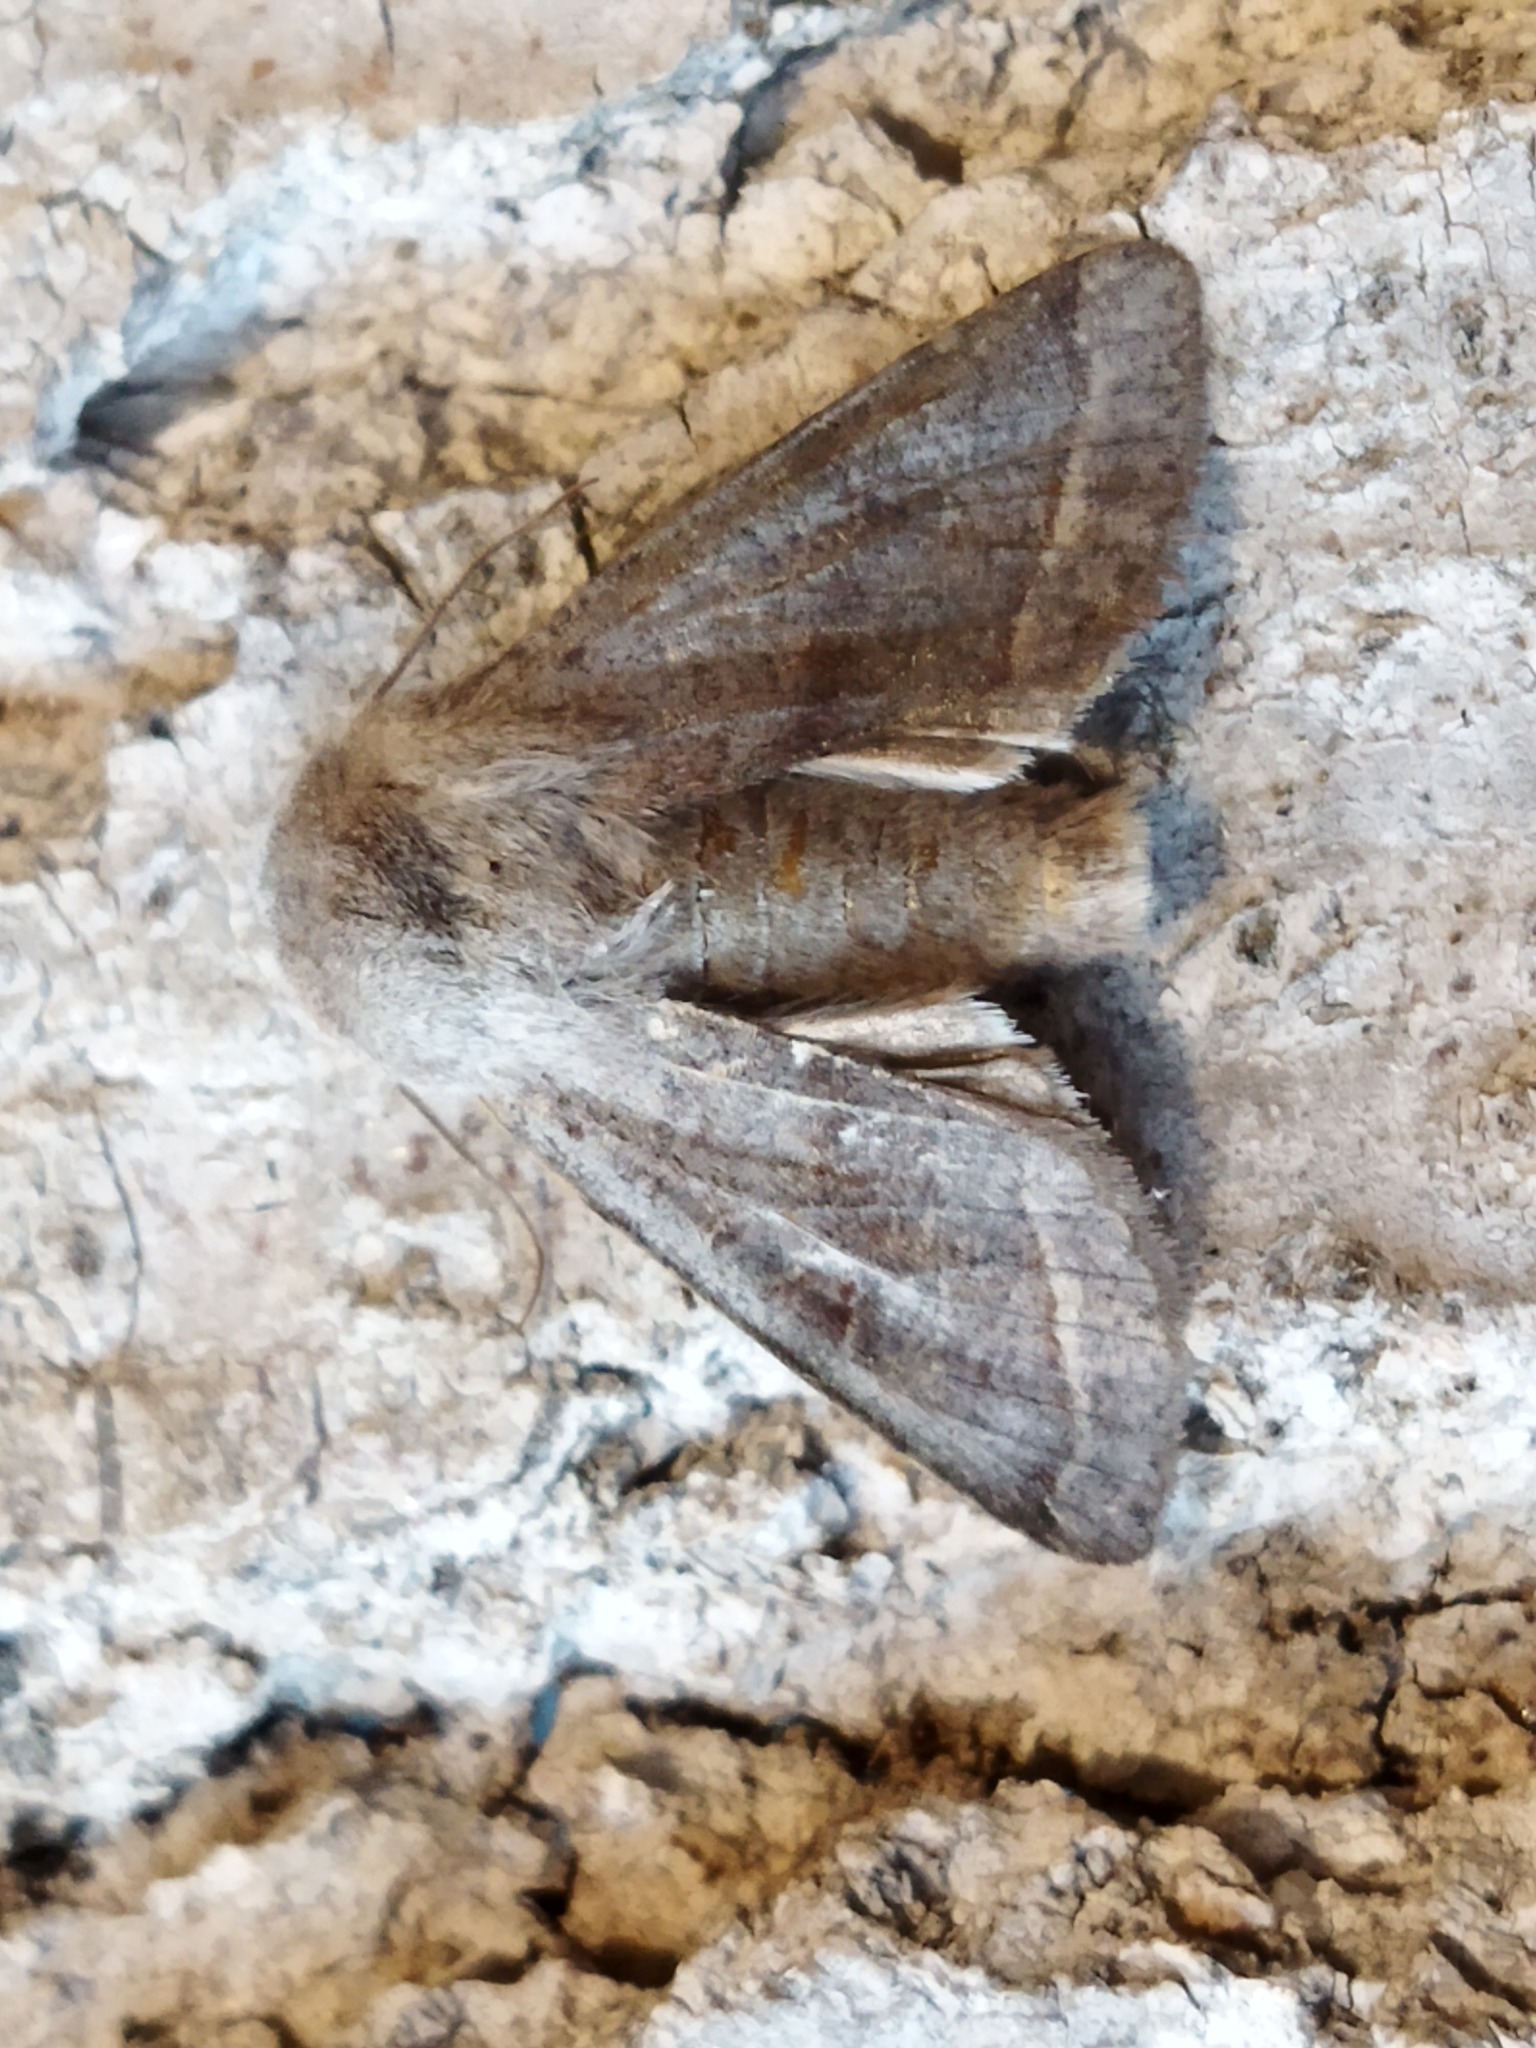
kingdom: Animalia
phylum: Arthropoda
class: Insecta
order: Lepidoptera
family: Noctuidae
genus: Orthosia
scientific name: Orthosia opima
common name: Northern drab
